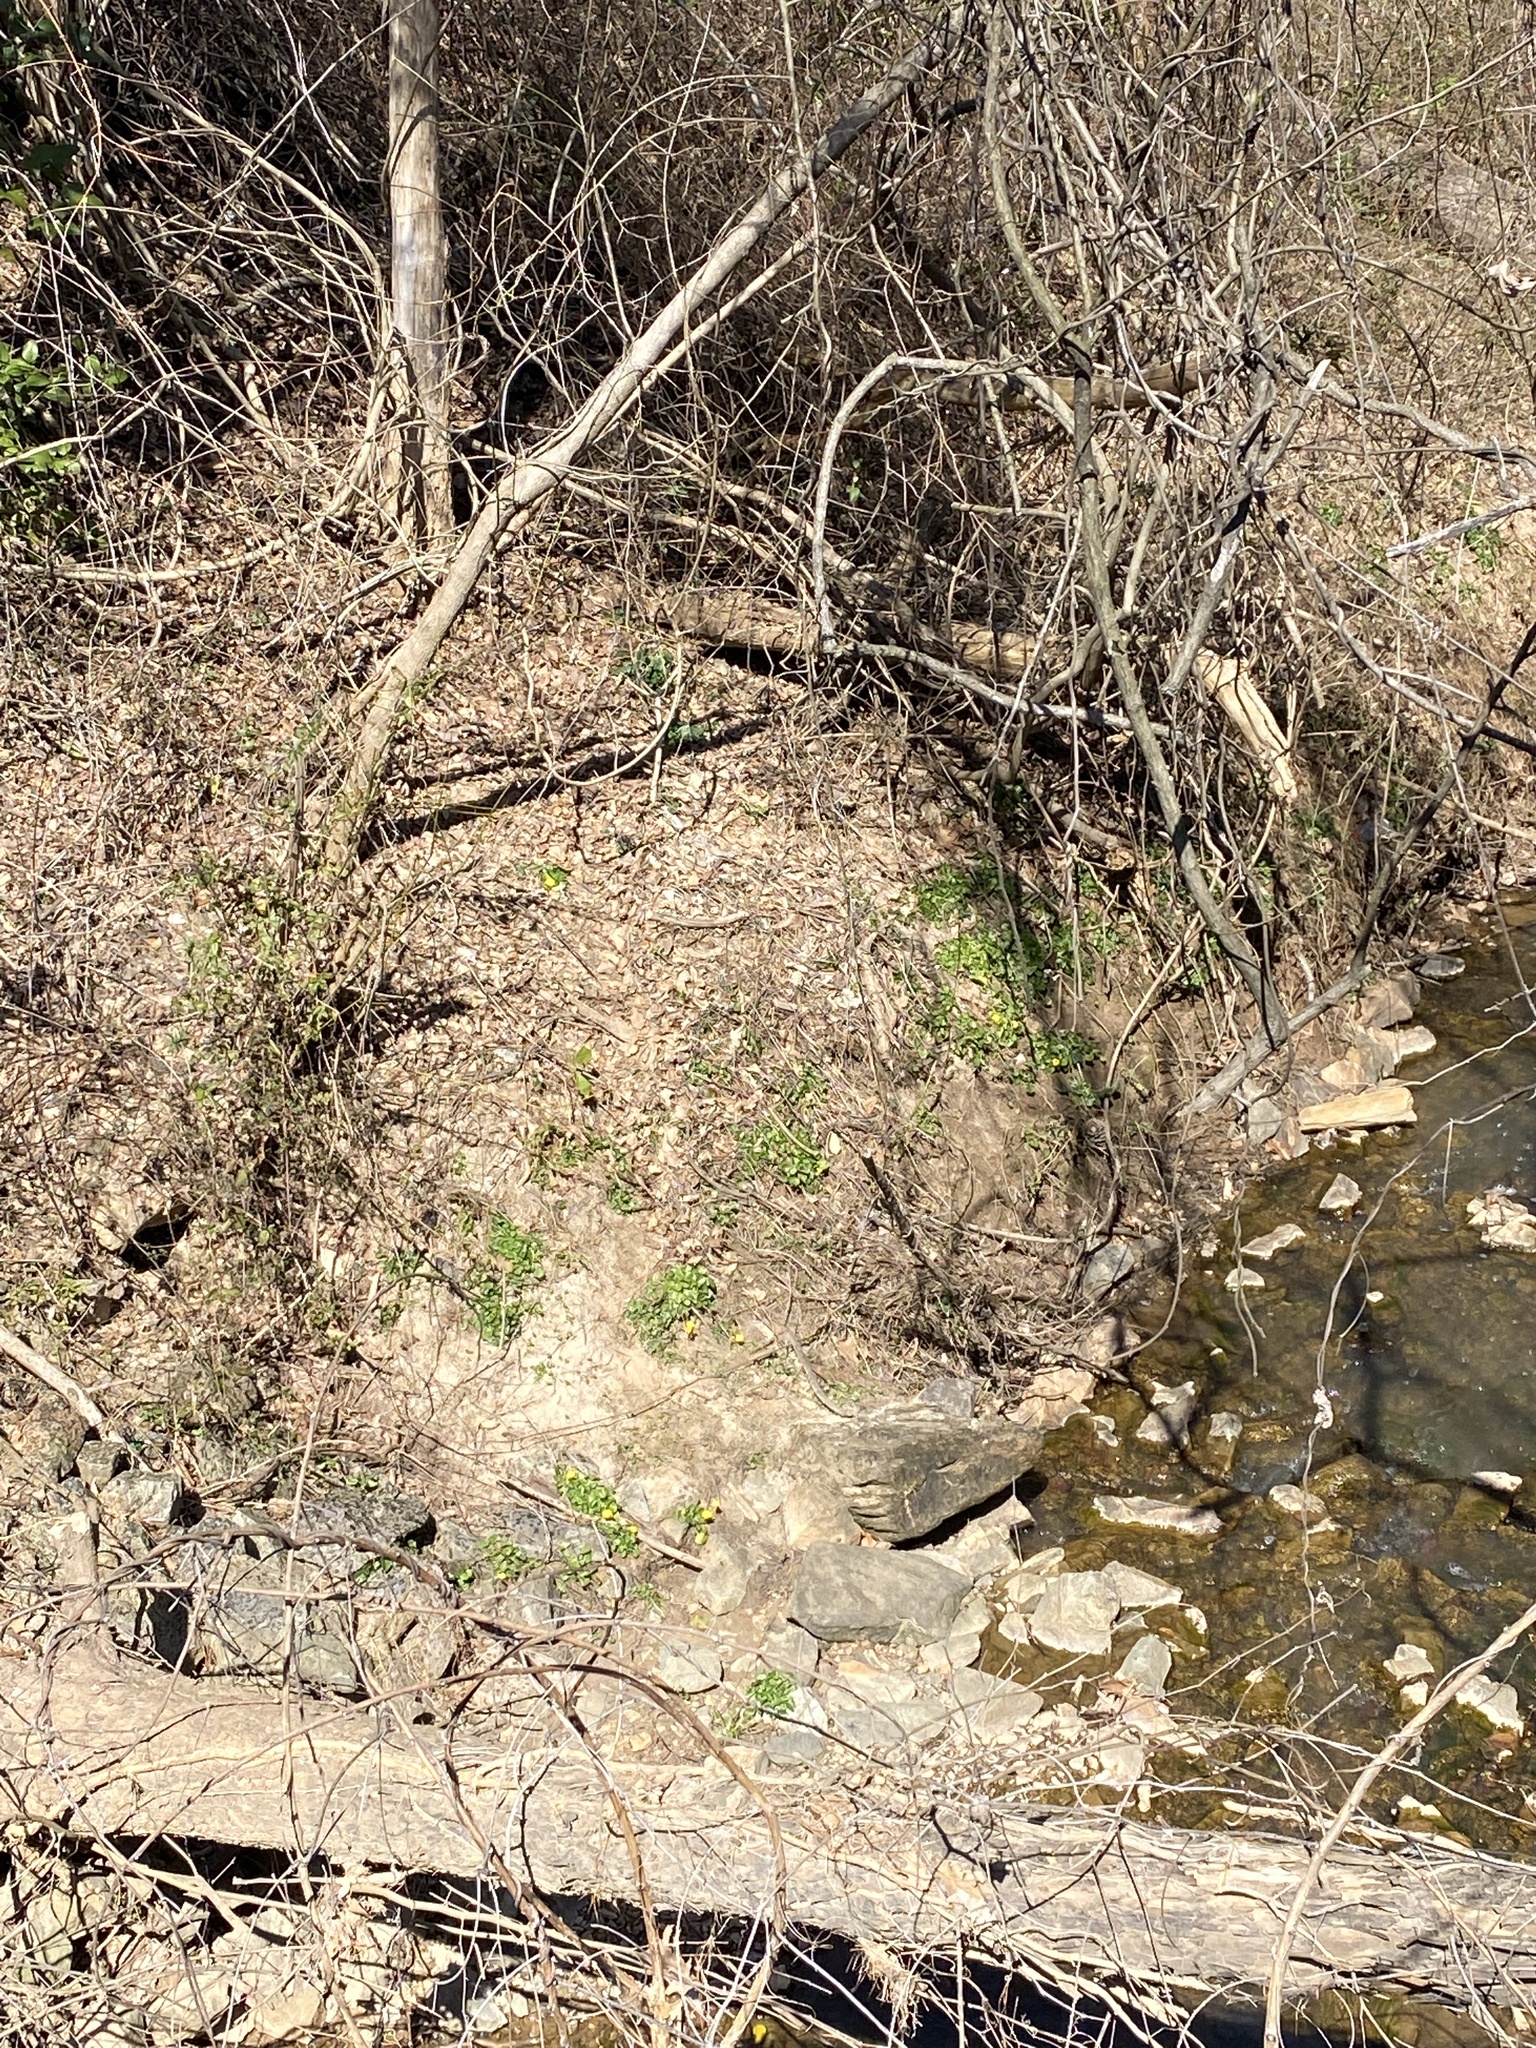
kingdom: Plantae
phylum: Tracheophyta
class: Magnoliopsida
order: Ranunculales
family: Ranunculaceae
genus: Ficaria
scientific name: Ficaria verna
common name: Lesser celandine
